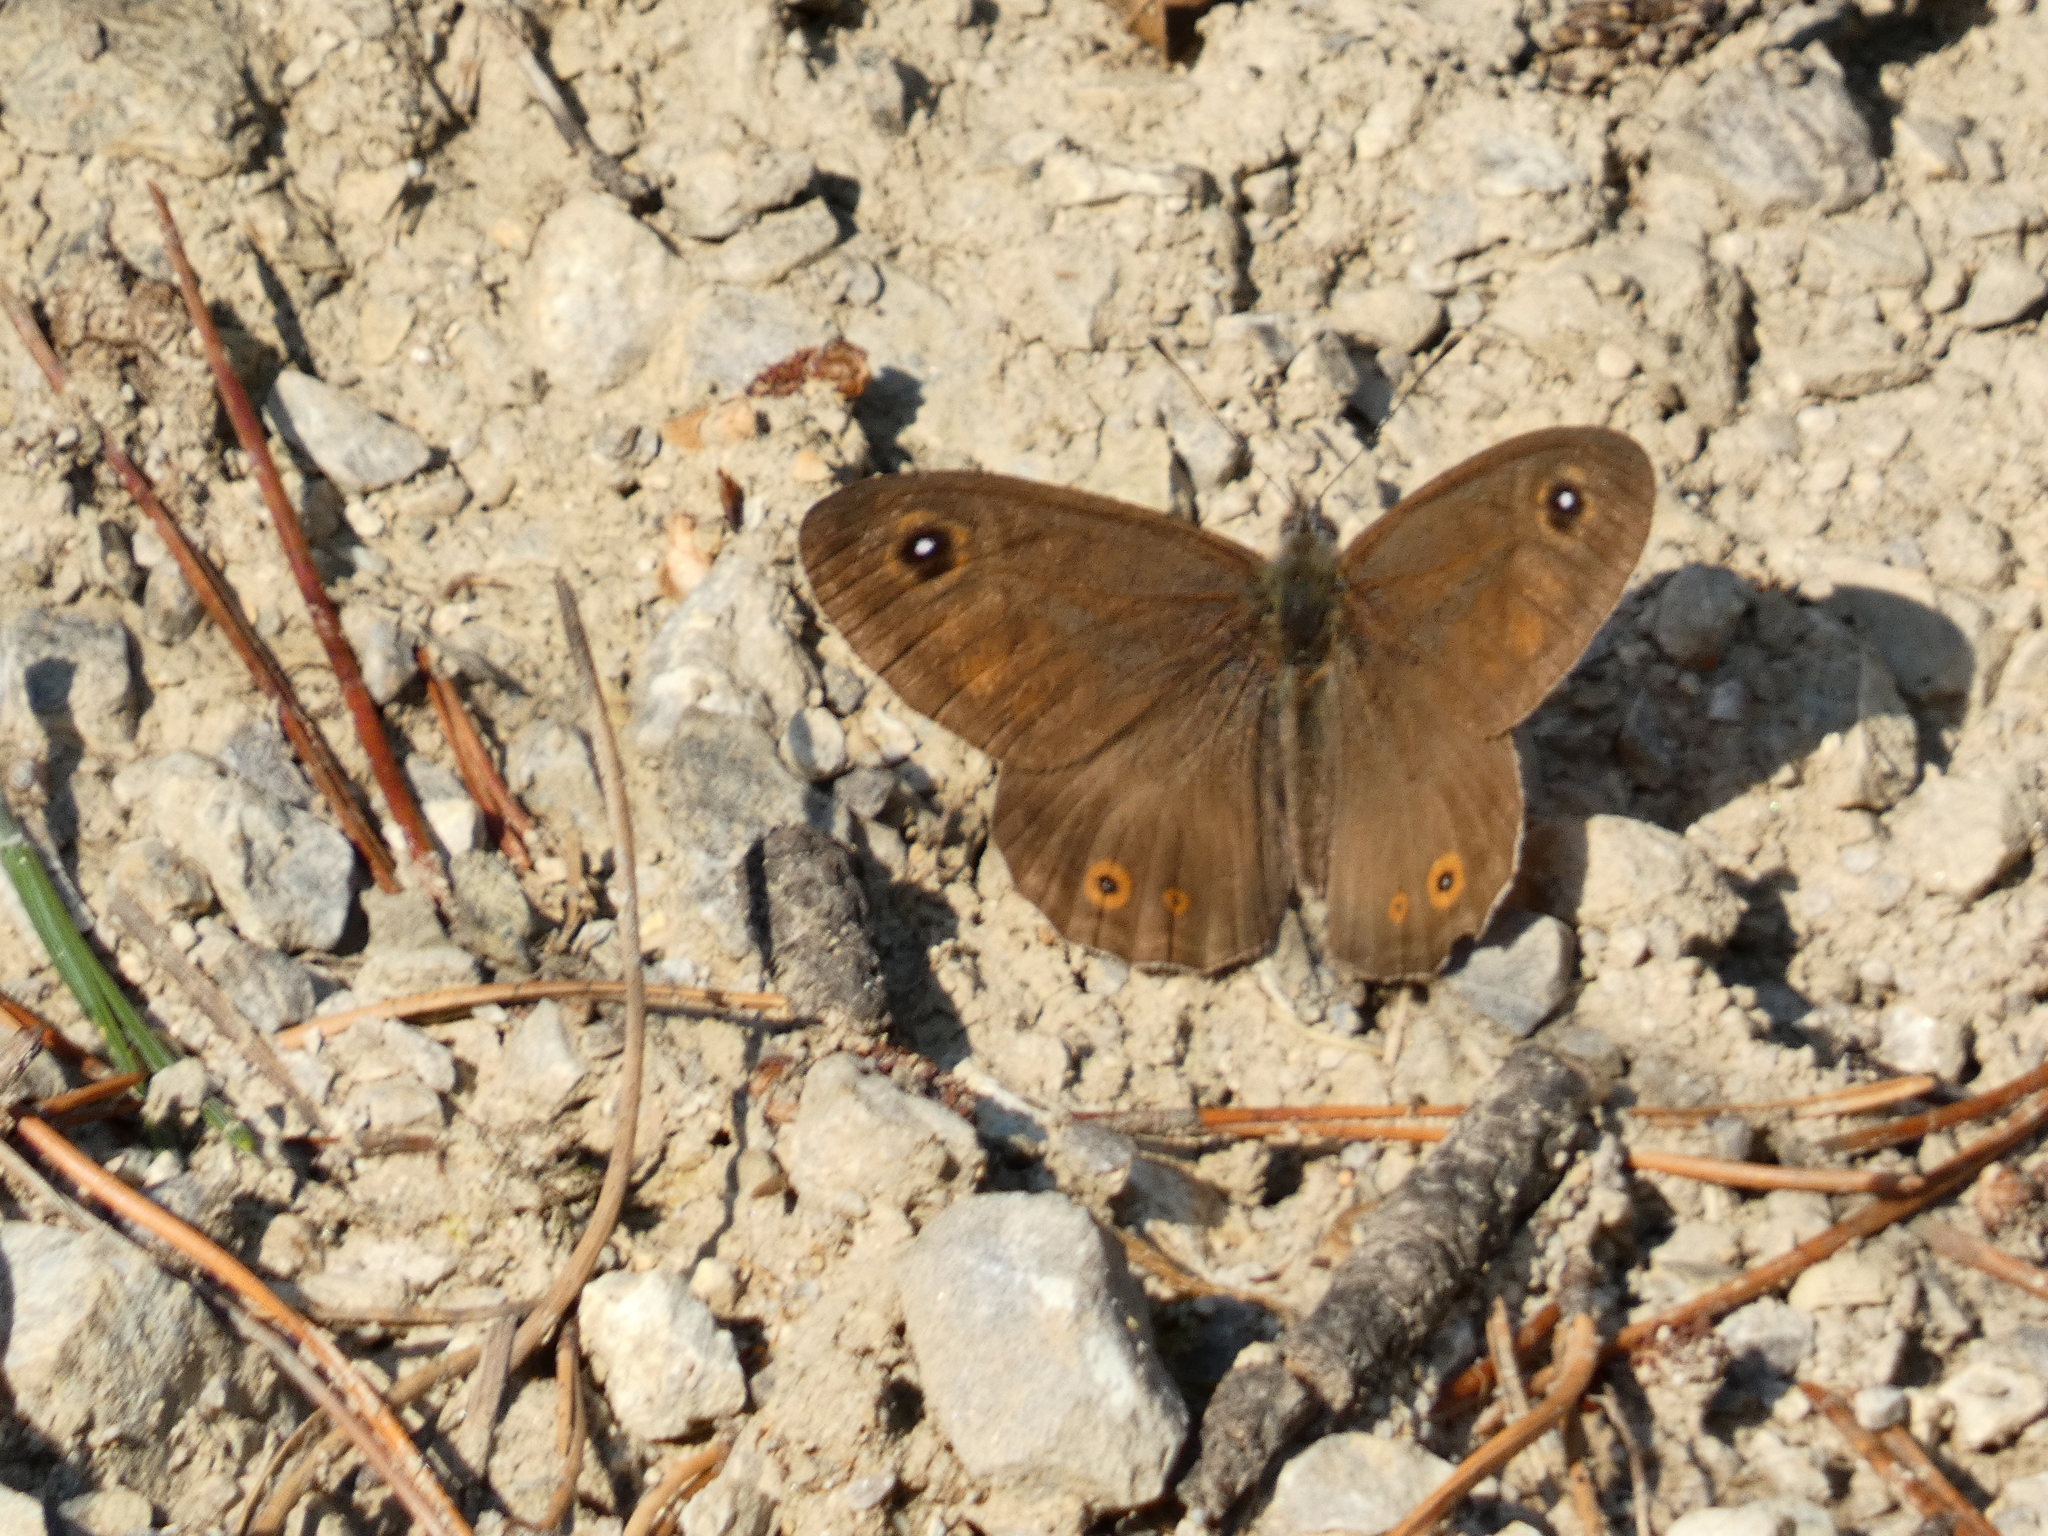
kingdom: Animalia
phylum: Arthropoda
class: Insecta
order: Lepidoptera
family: Nymphalidae
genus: Pararge
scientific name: Pararge Lasiommata maera
